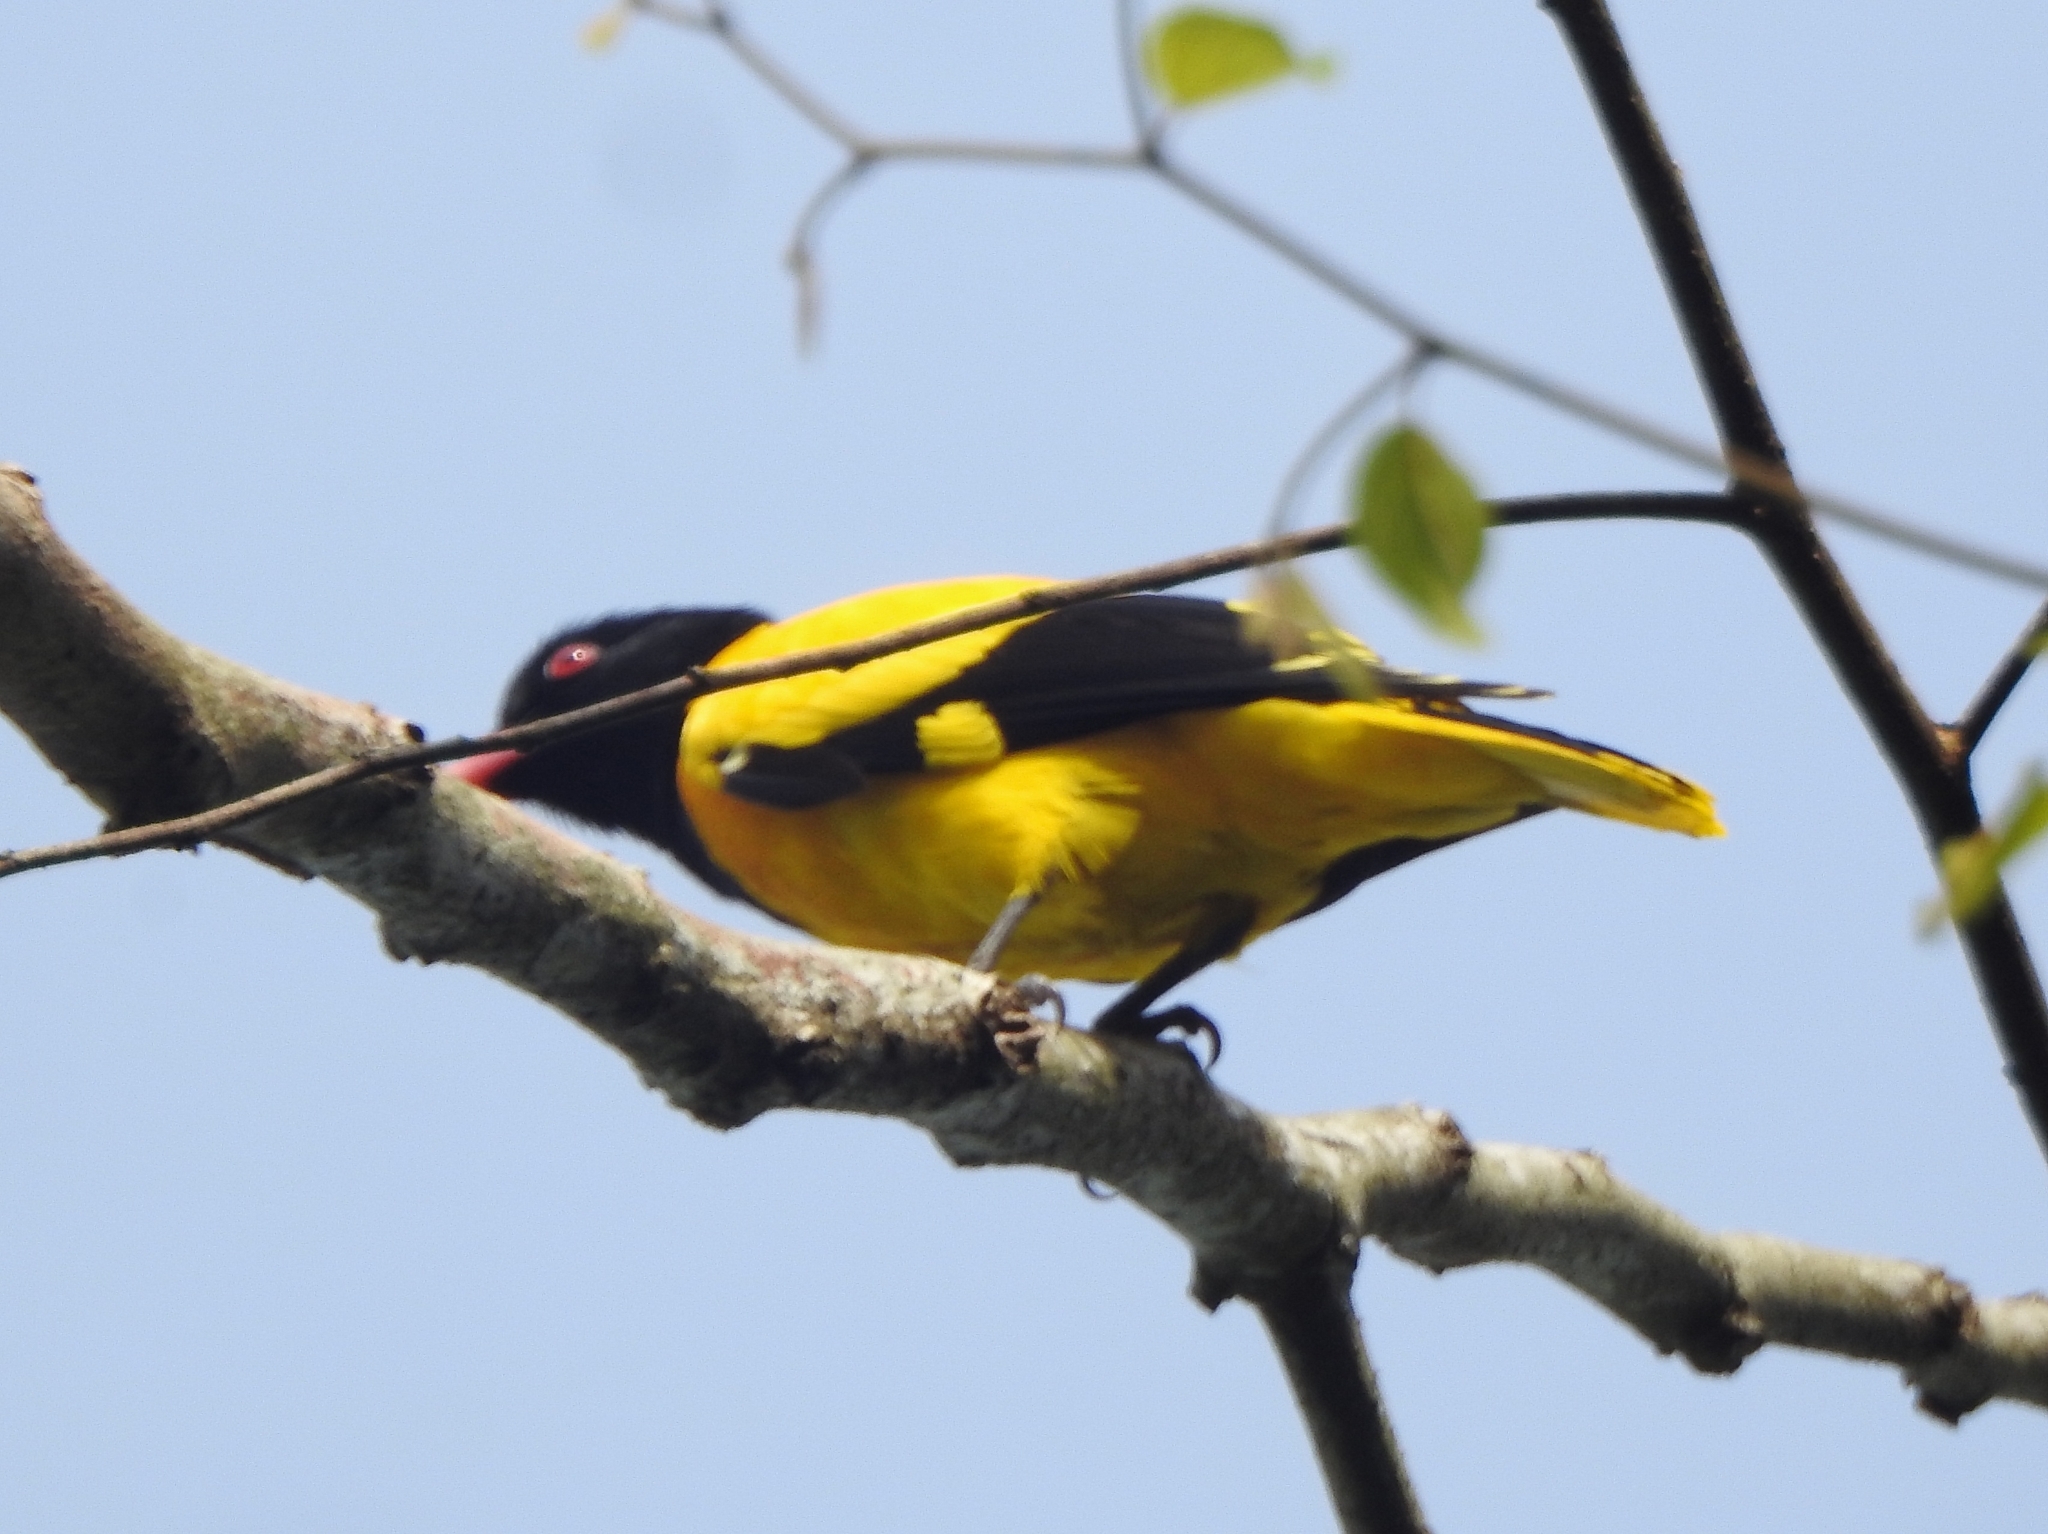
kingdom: Animalia
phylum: Chordata
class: Aves
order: Passeriformes
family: Oriolidae
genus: Oriolus
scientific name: Oriolus xanthornus
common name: Black-hooded oriole
